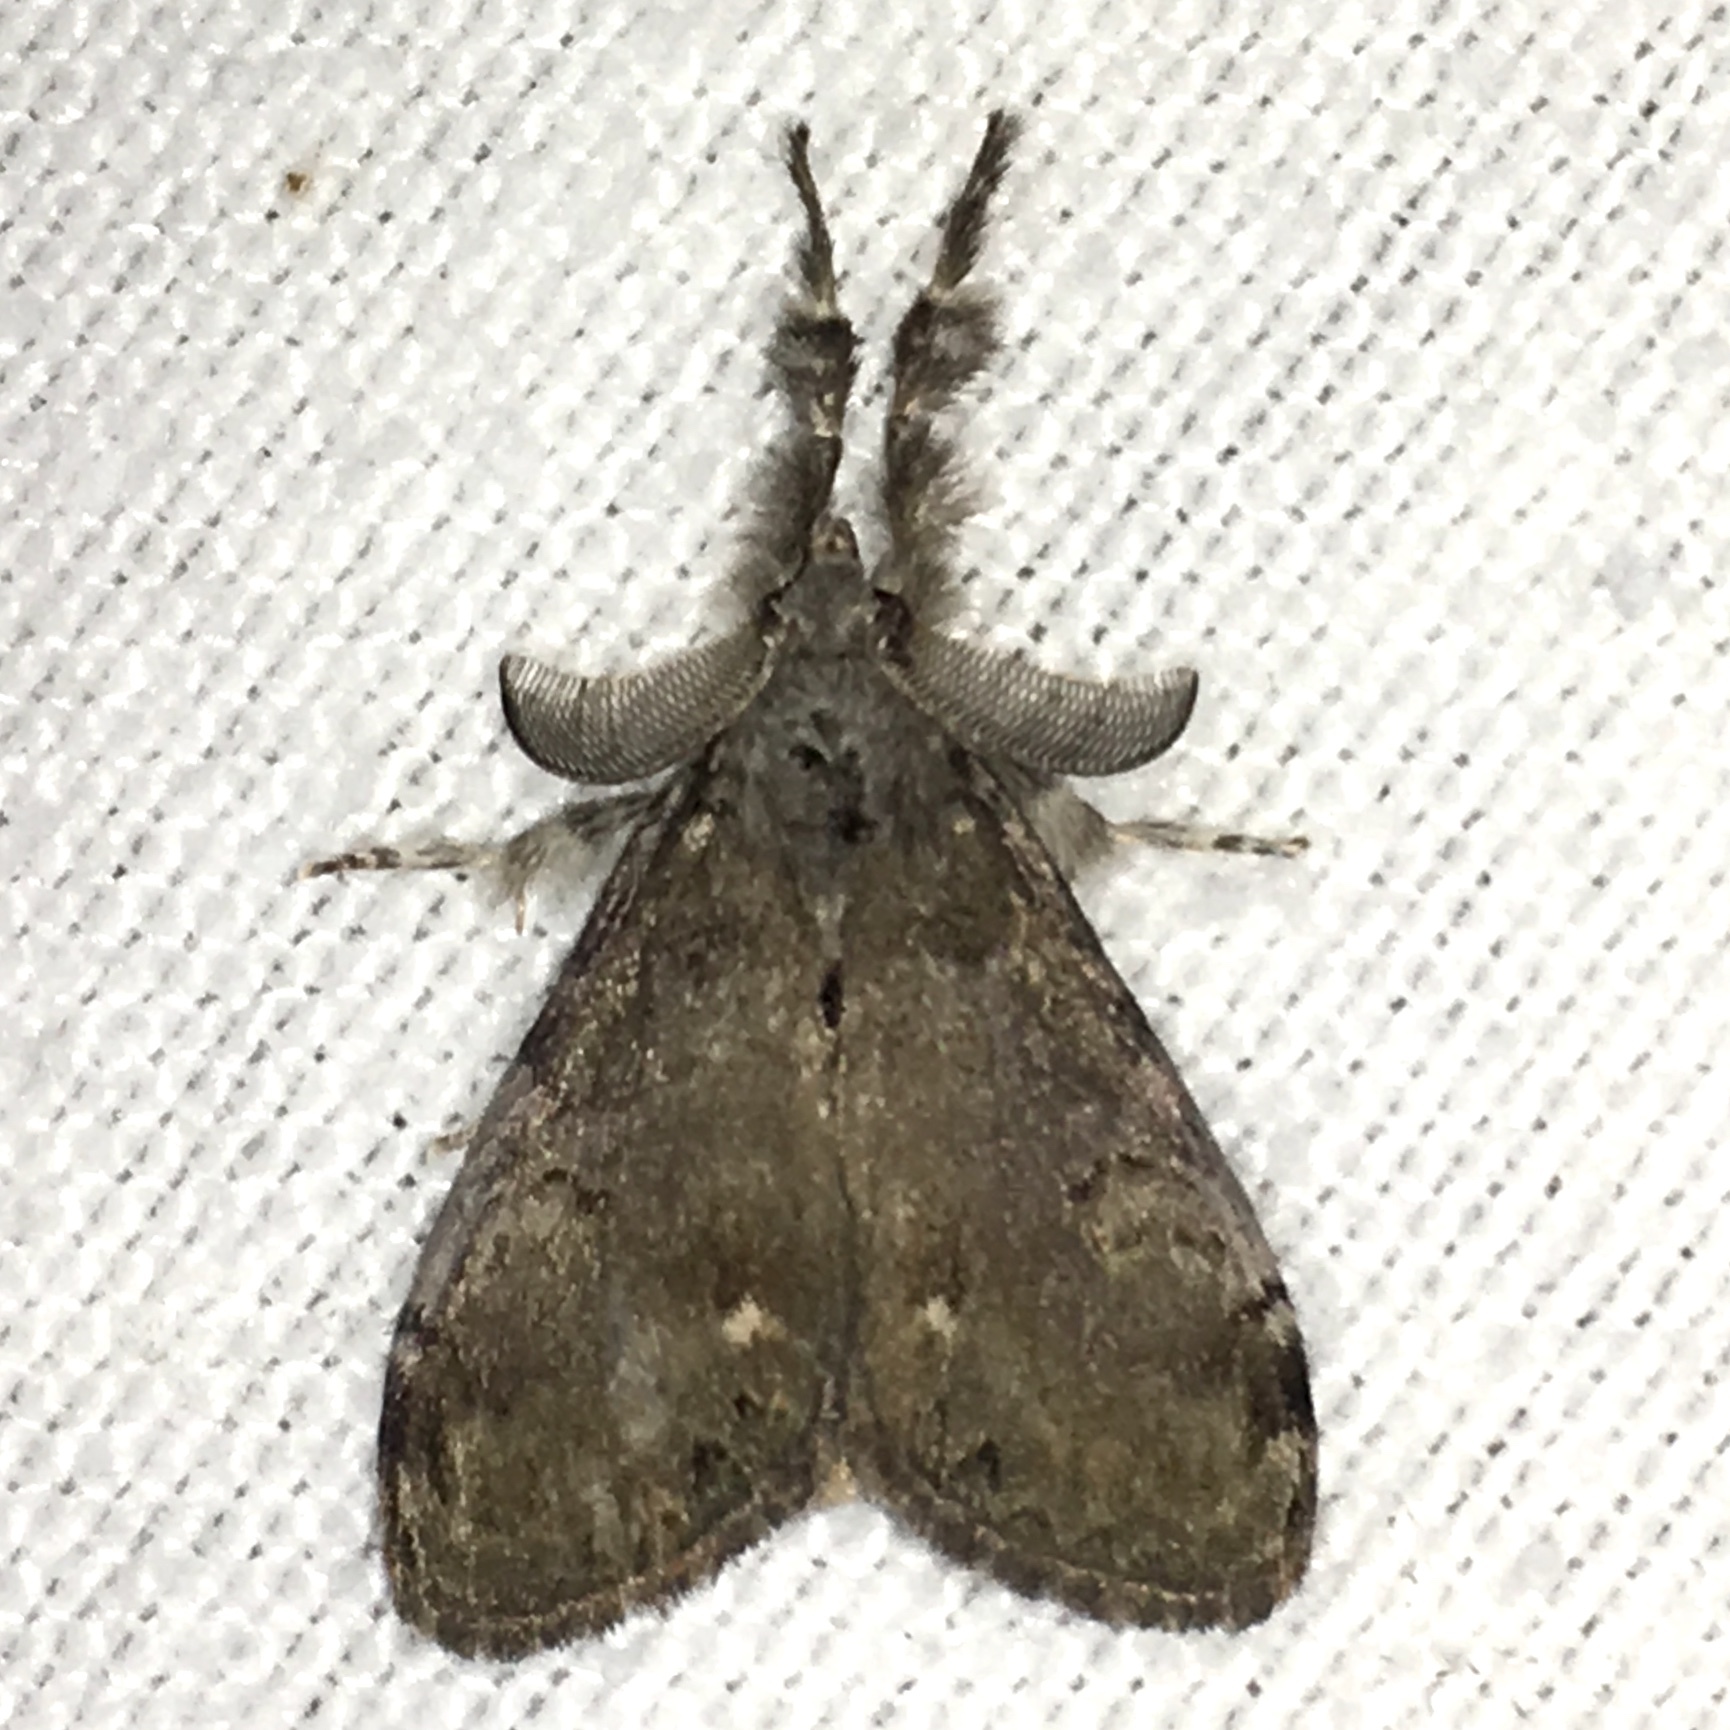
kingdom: Animalia
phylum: Arthropoda
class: Insecta
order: Lepidoptera
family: Erebidae
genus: Orgyia
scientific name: Orgyia leucostigma
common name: White-marked tussock moth
